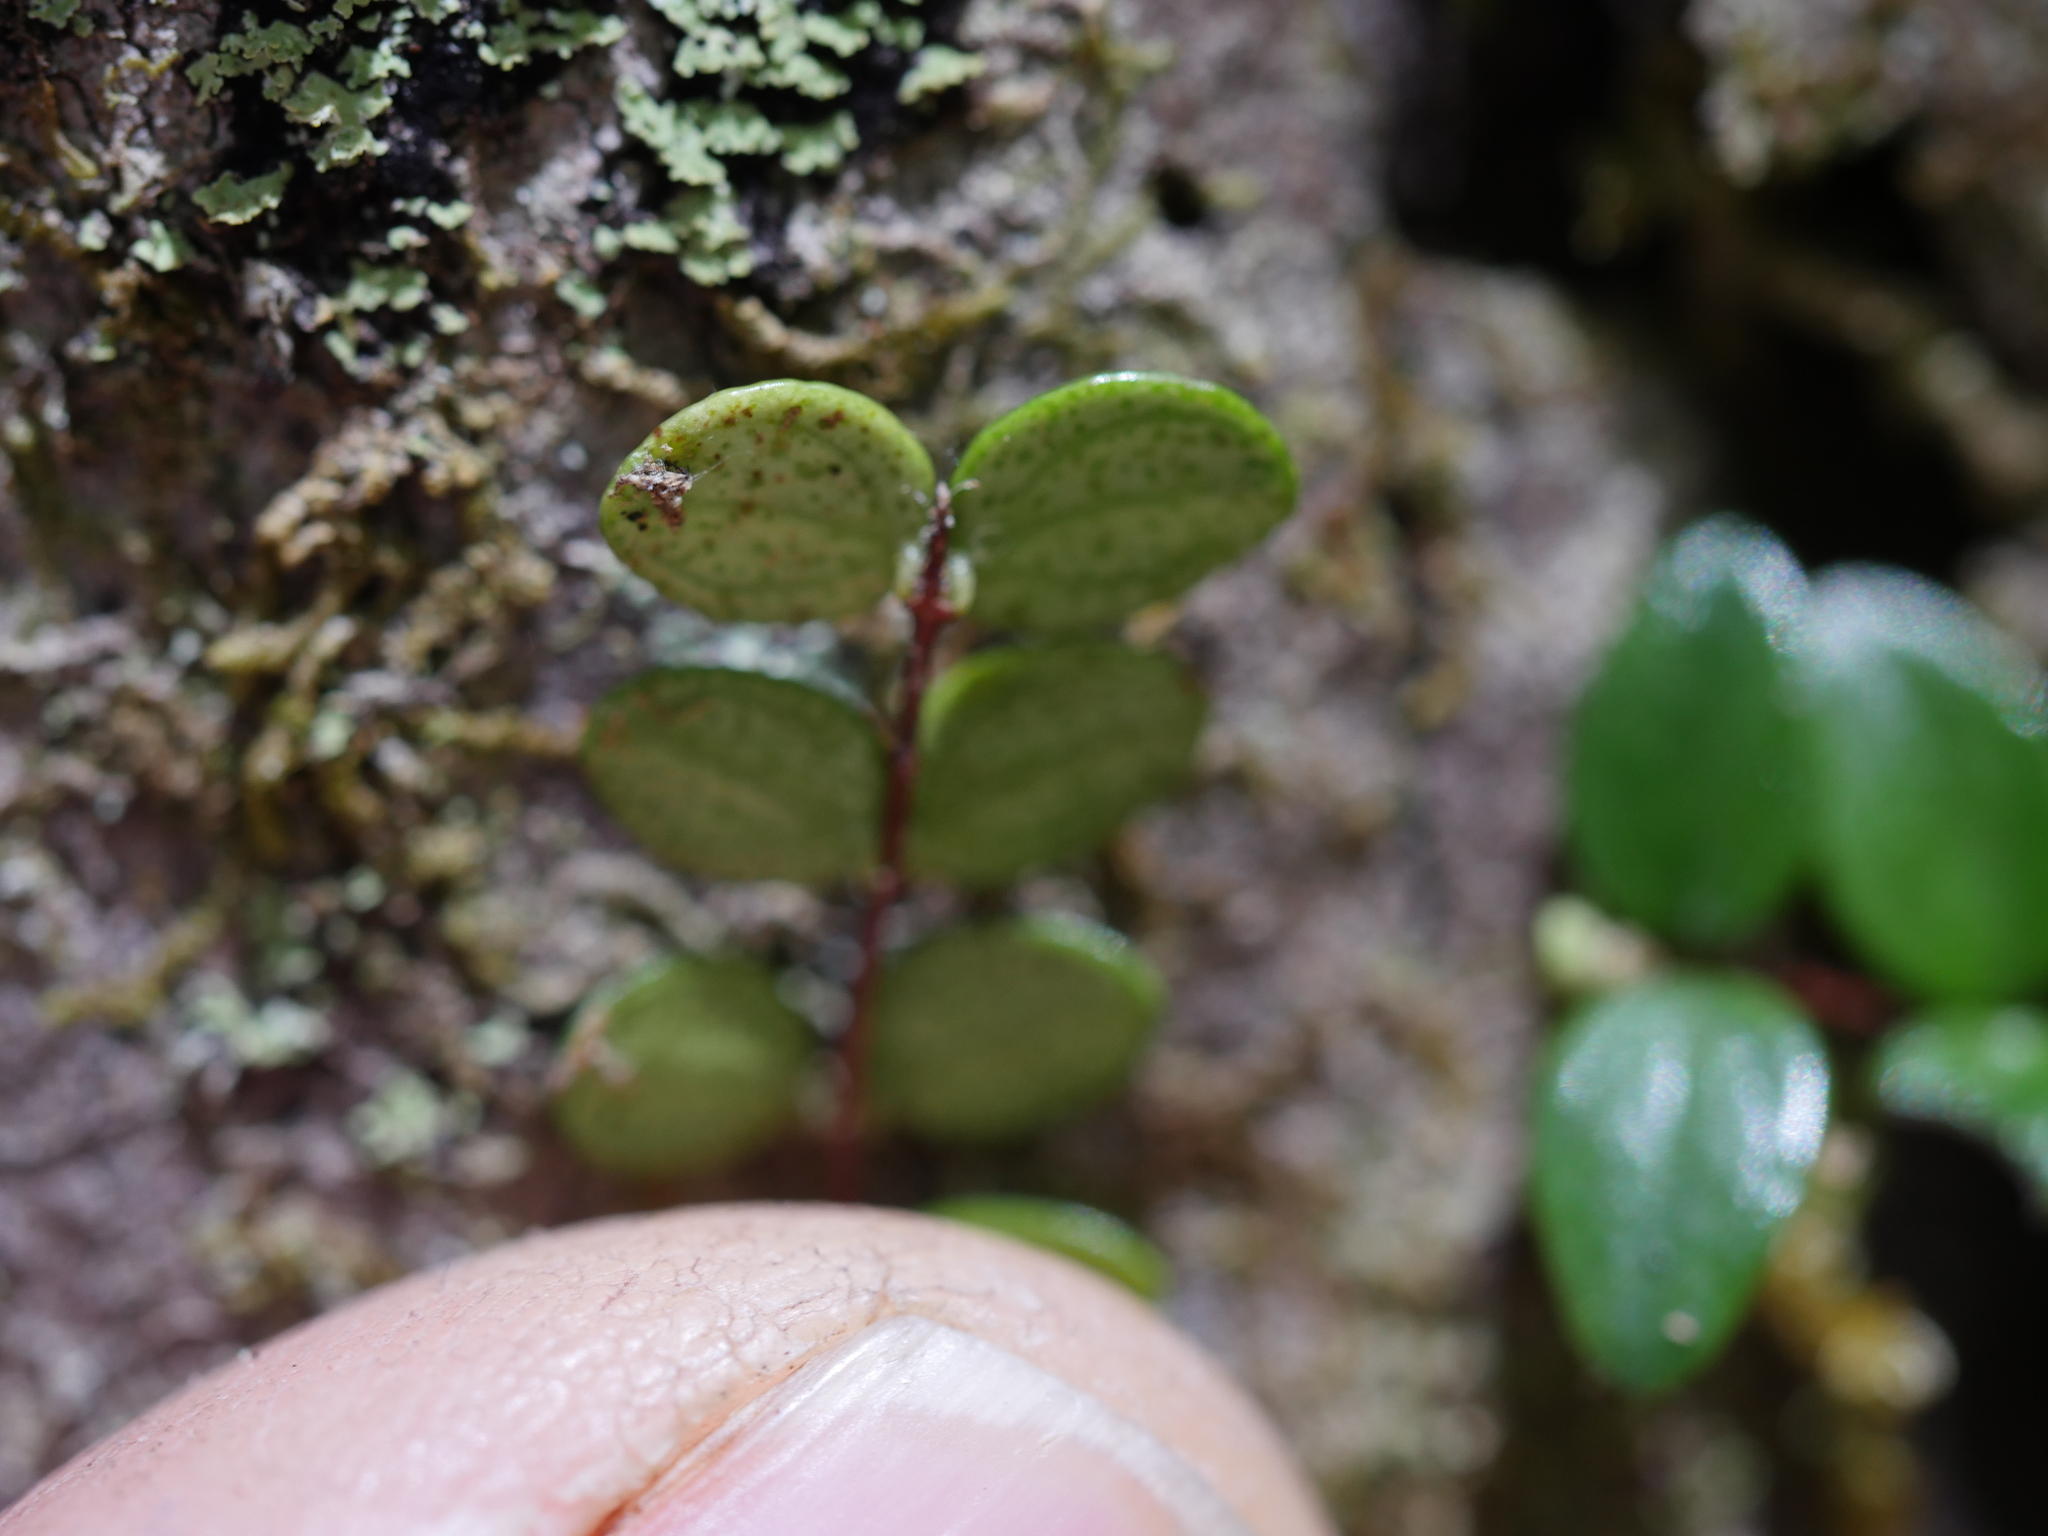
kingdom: Plantae
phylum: Tracheophyta
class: Magnoliopsida
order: Myrtales
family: Myrtaceae
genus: Metrosideros
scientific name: Metrosideros perforata
